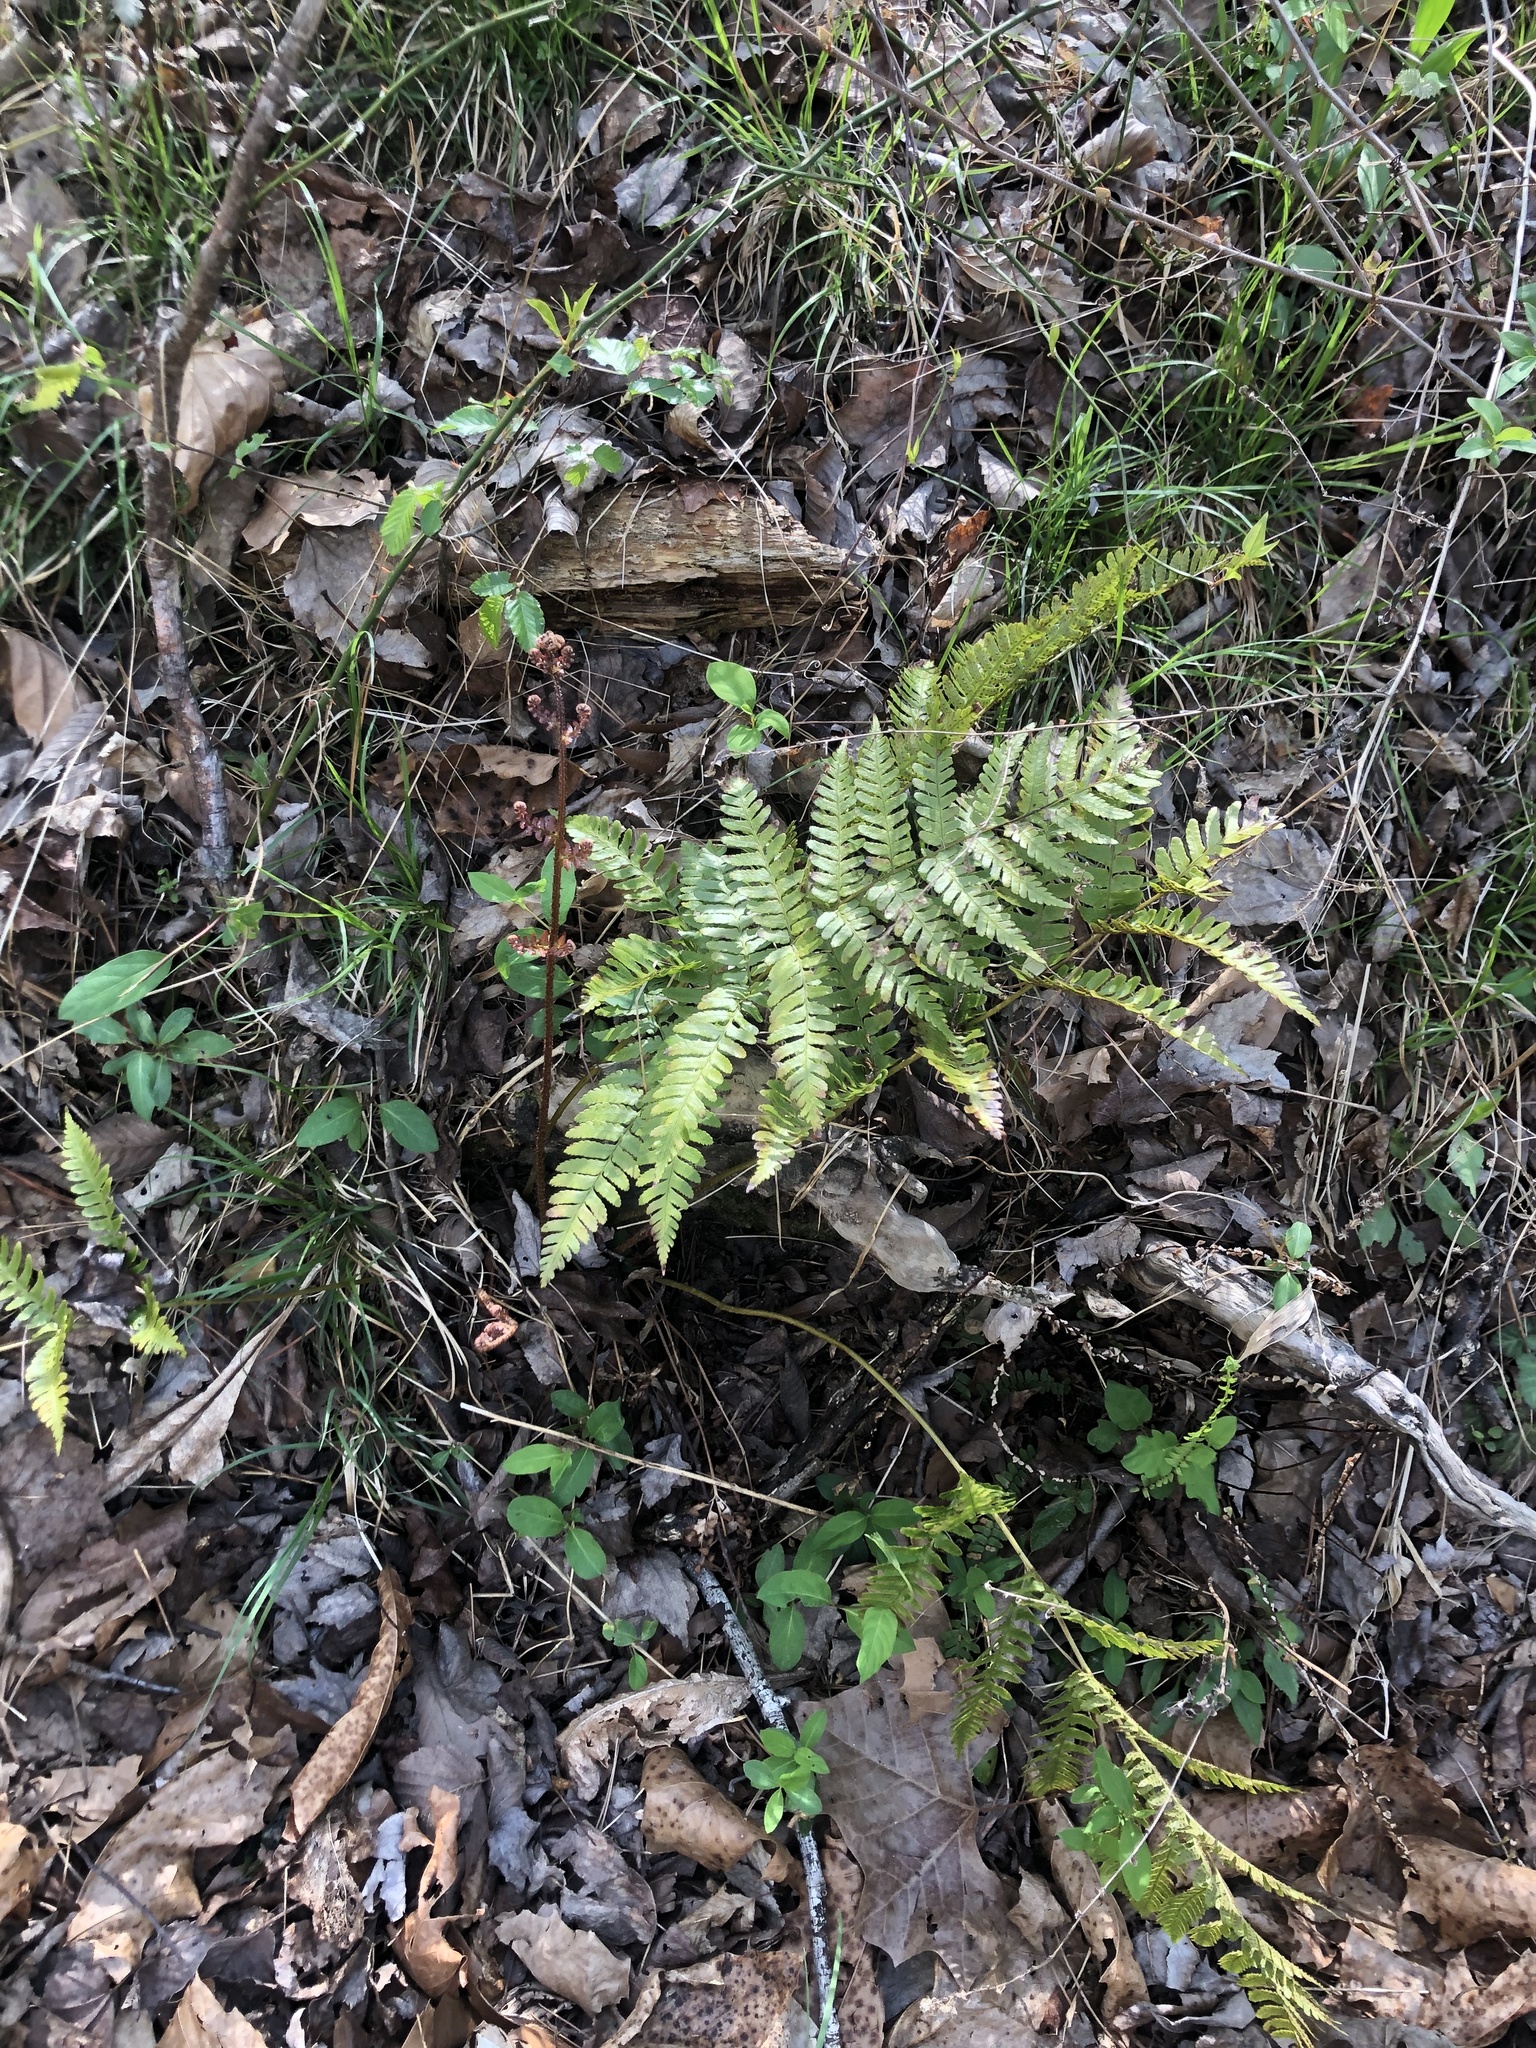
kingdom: Plantae
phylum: Tracheophyta
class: Polypodiopsida
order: Polypodiales
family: Dryopteridaceae
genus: Dryopteris
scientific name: Dryopteris erythrosora
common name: Autumn fern
